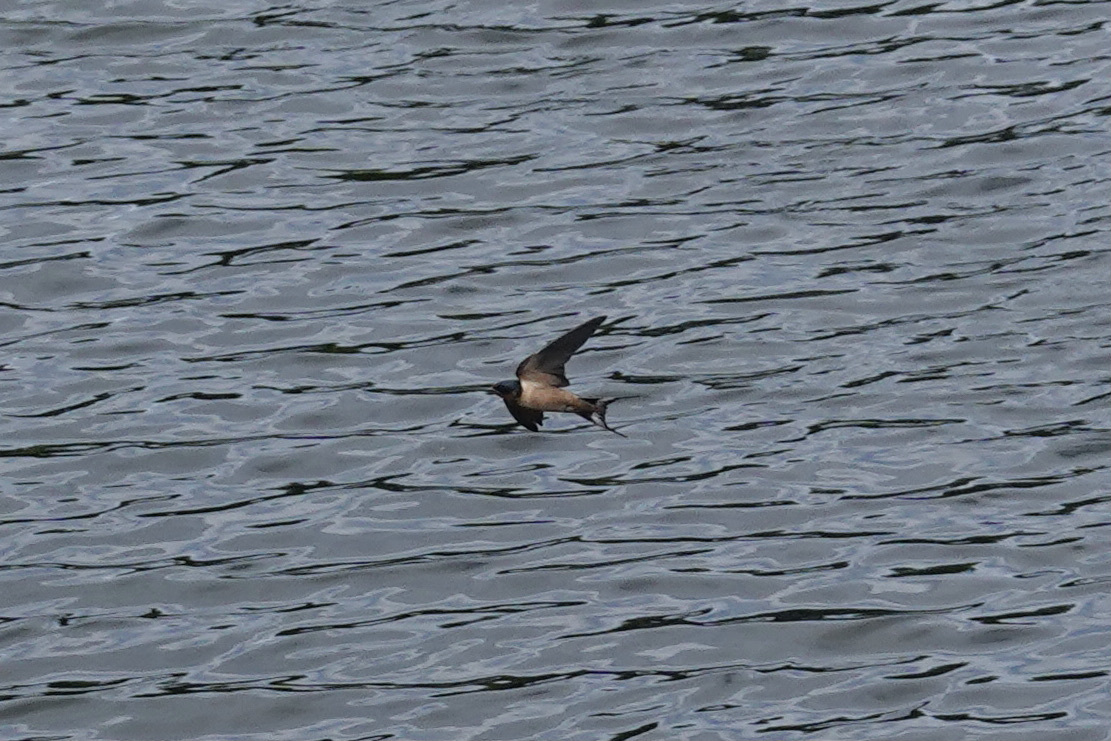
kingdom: Animalia
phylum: Chordata
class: Aves
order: Passeriformes
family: Hirundinidae
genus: Hirundo
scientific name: Hirundo rustica
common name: Barn swallow
